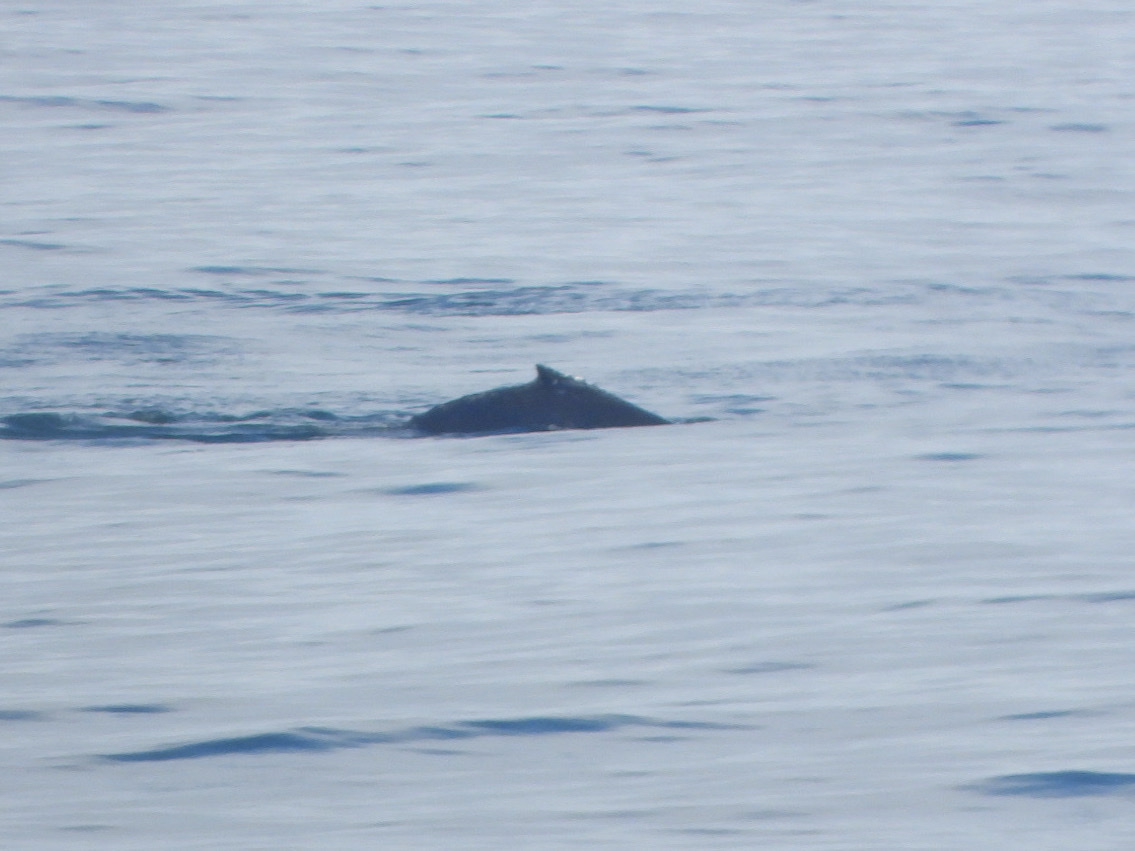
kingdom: Animalia
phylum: Chordata
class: Mammalia
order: Cetacea
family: Balaenopteridae
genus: Megaptera
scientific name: Megaptera novaeangliae
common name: Humpback whale
